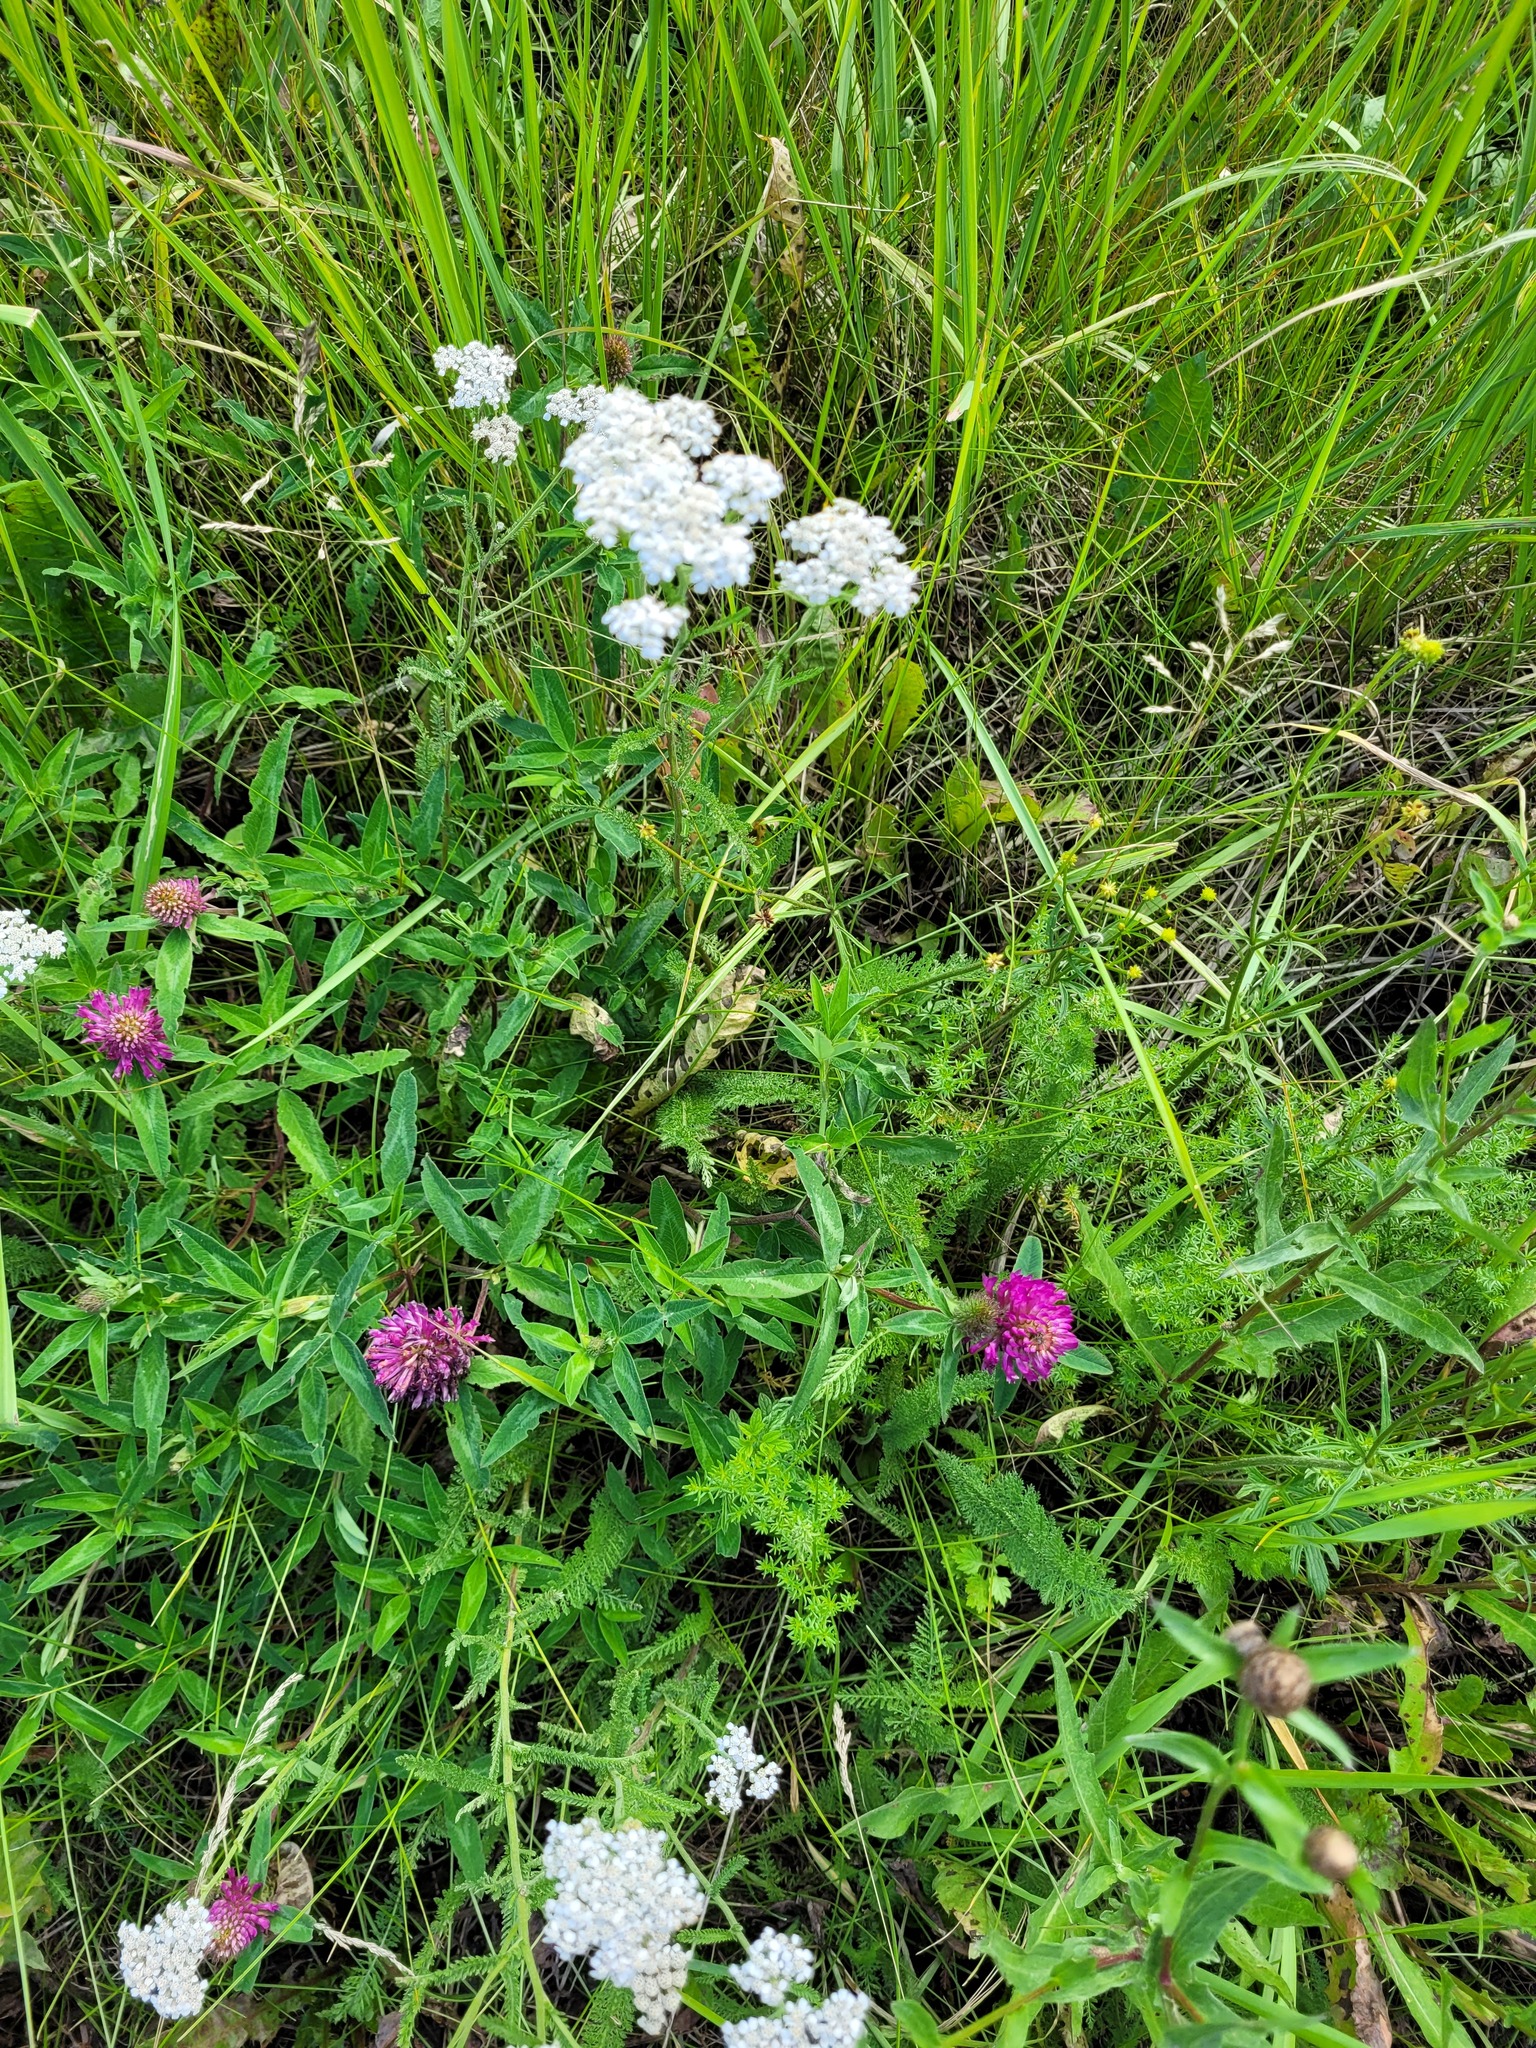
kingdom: Plantae
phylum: Tracheophyta
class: Magnoliopsida
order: Fabales
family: Fabaceae
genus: Trifolium
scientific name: Trifolium medium
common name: Zigzag clover
